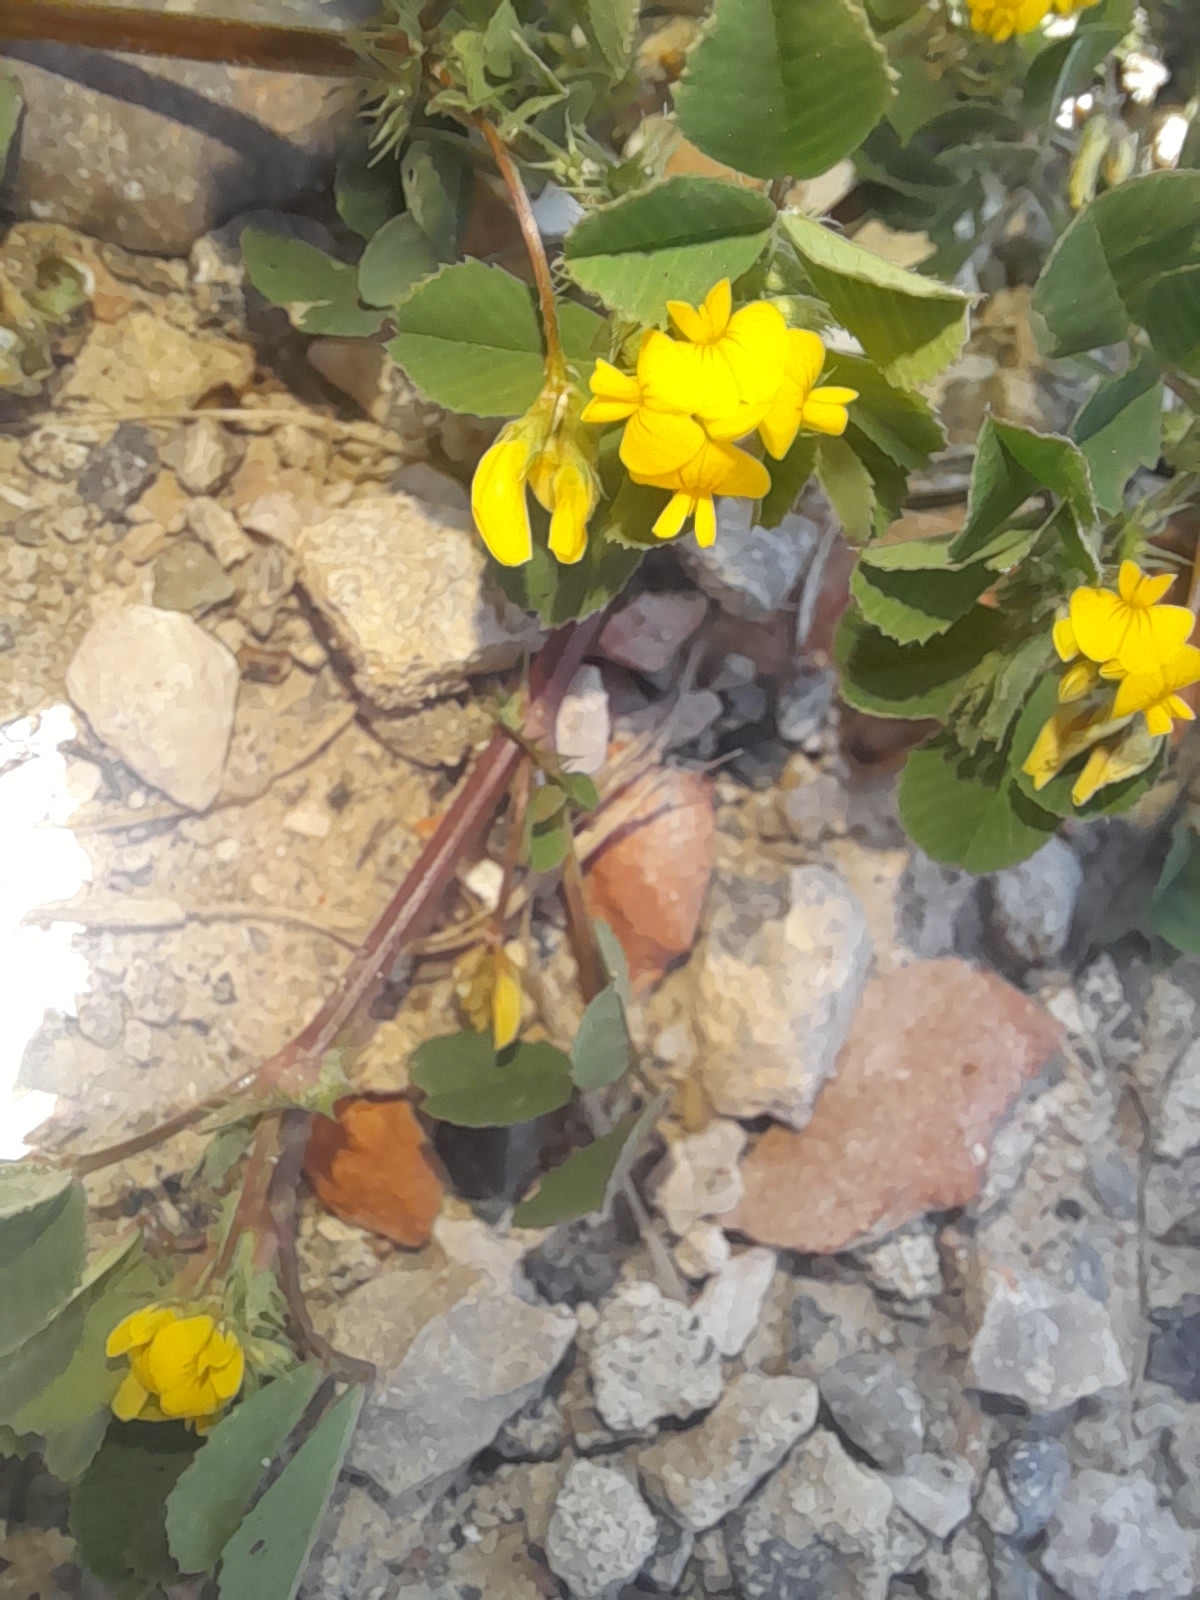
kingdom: Plantae
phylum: Tracheophyta
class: Magnoliopsida
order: Fabales
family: Fabaceae
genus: Medicago
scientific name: Medicago polymorpha
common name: Burclover
